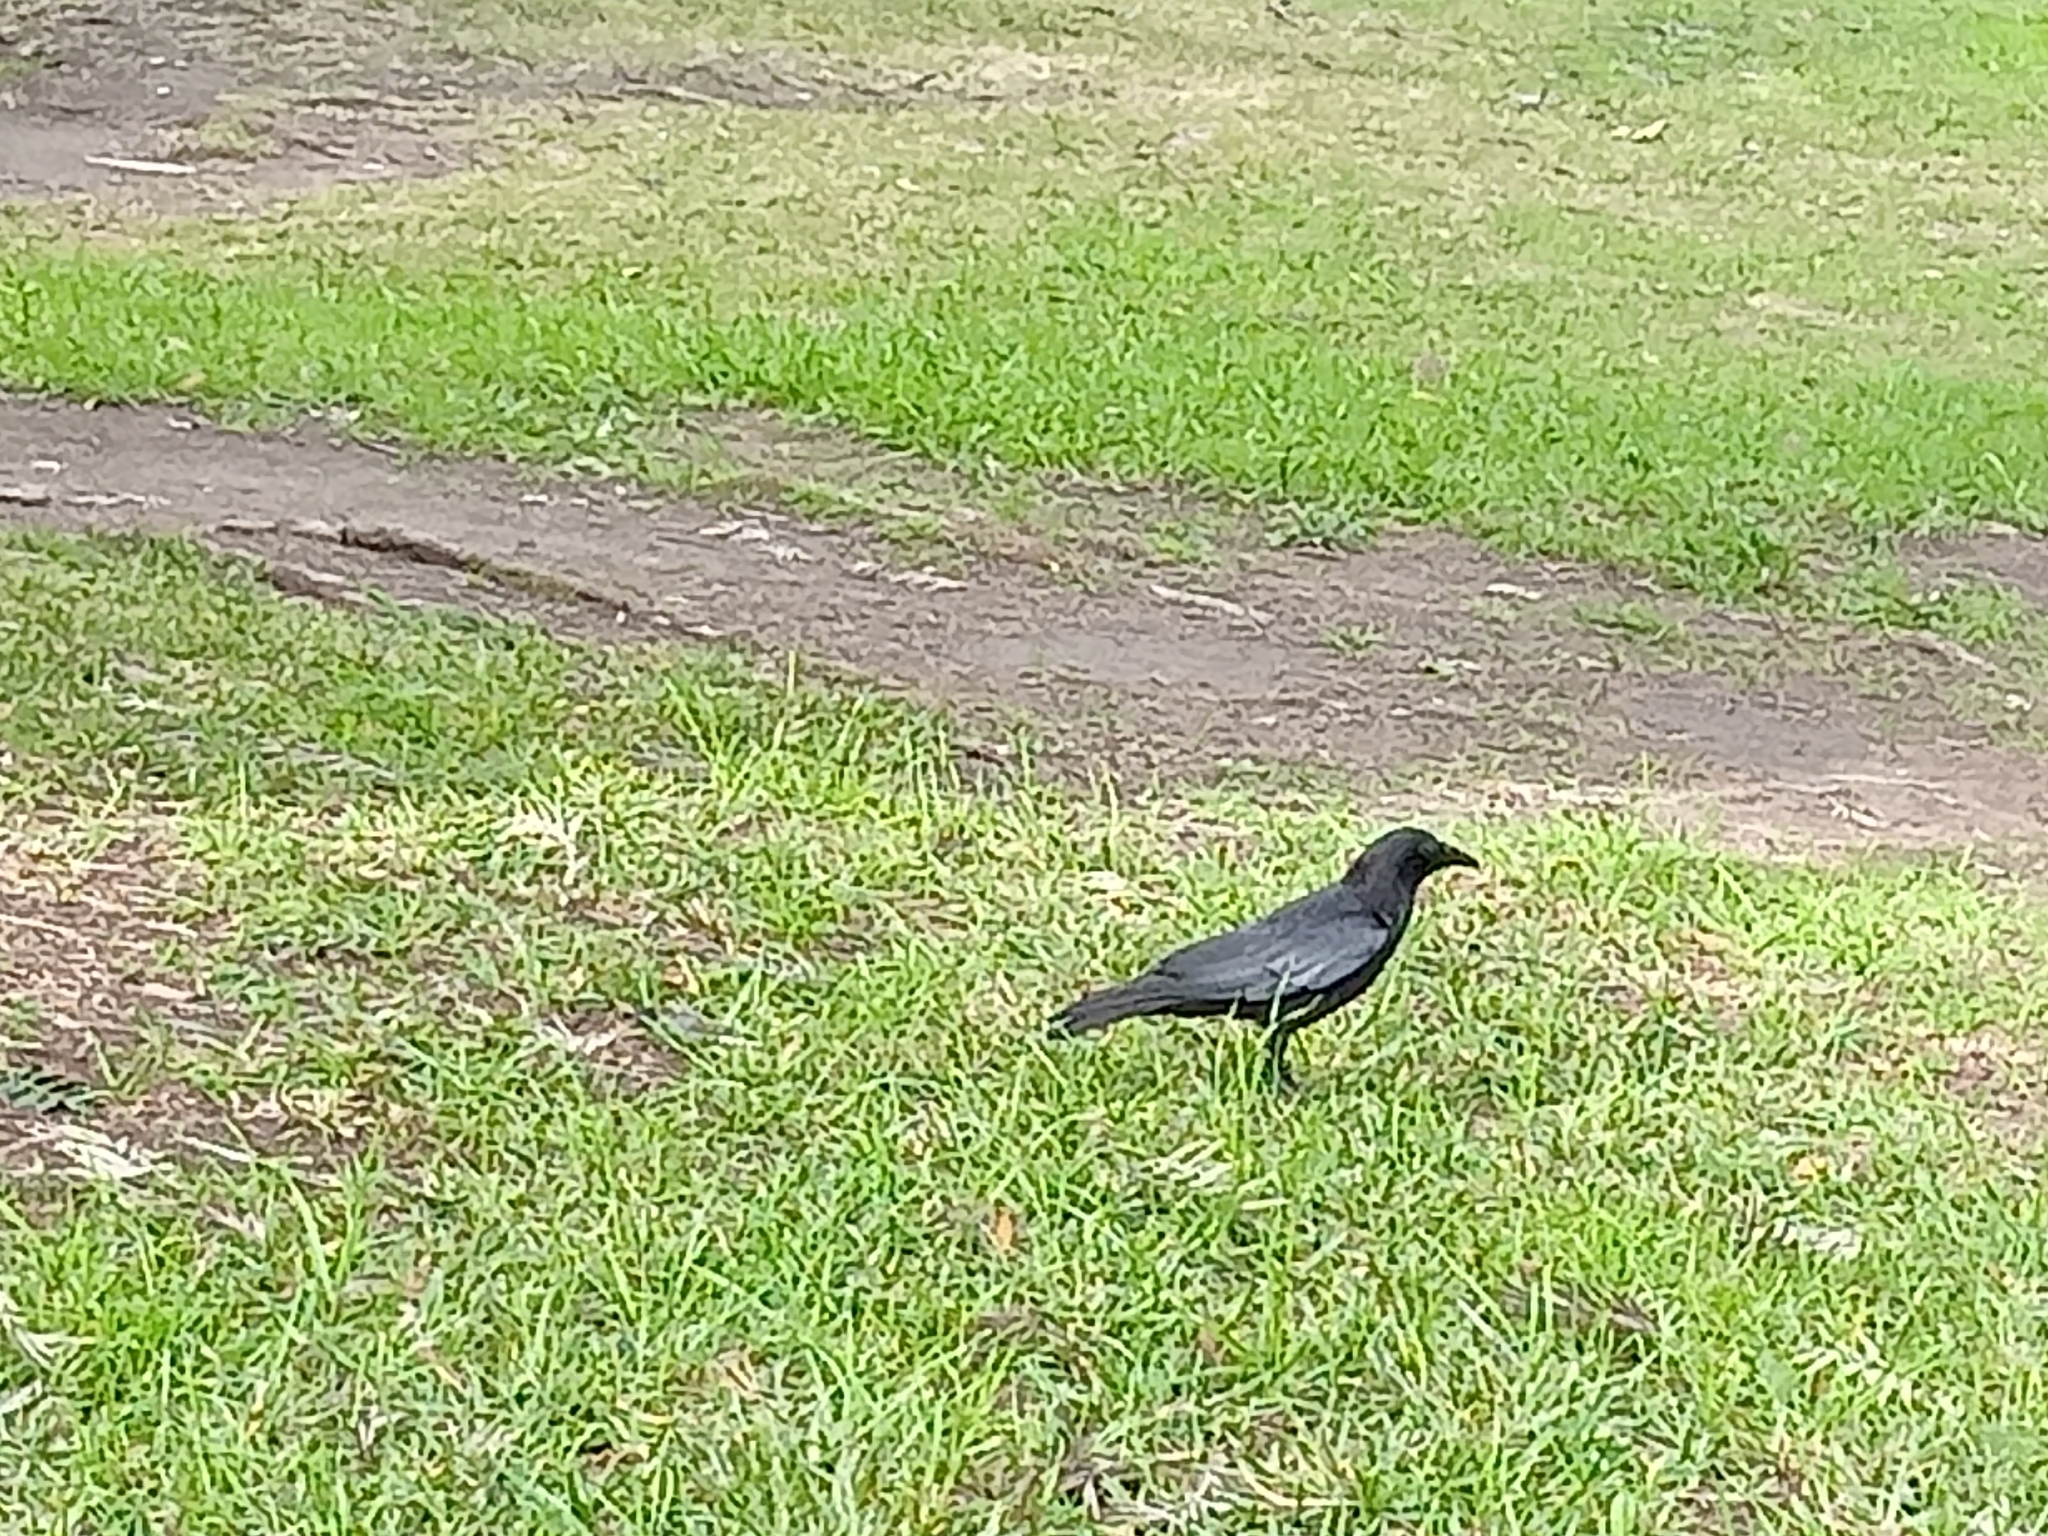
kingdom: Animalia
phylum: Chordata
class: Aves
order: Passeriformes
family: Corvidae
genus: Corvus
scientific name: Corvus brachyrhynchos
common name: American crow
